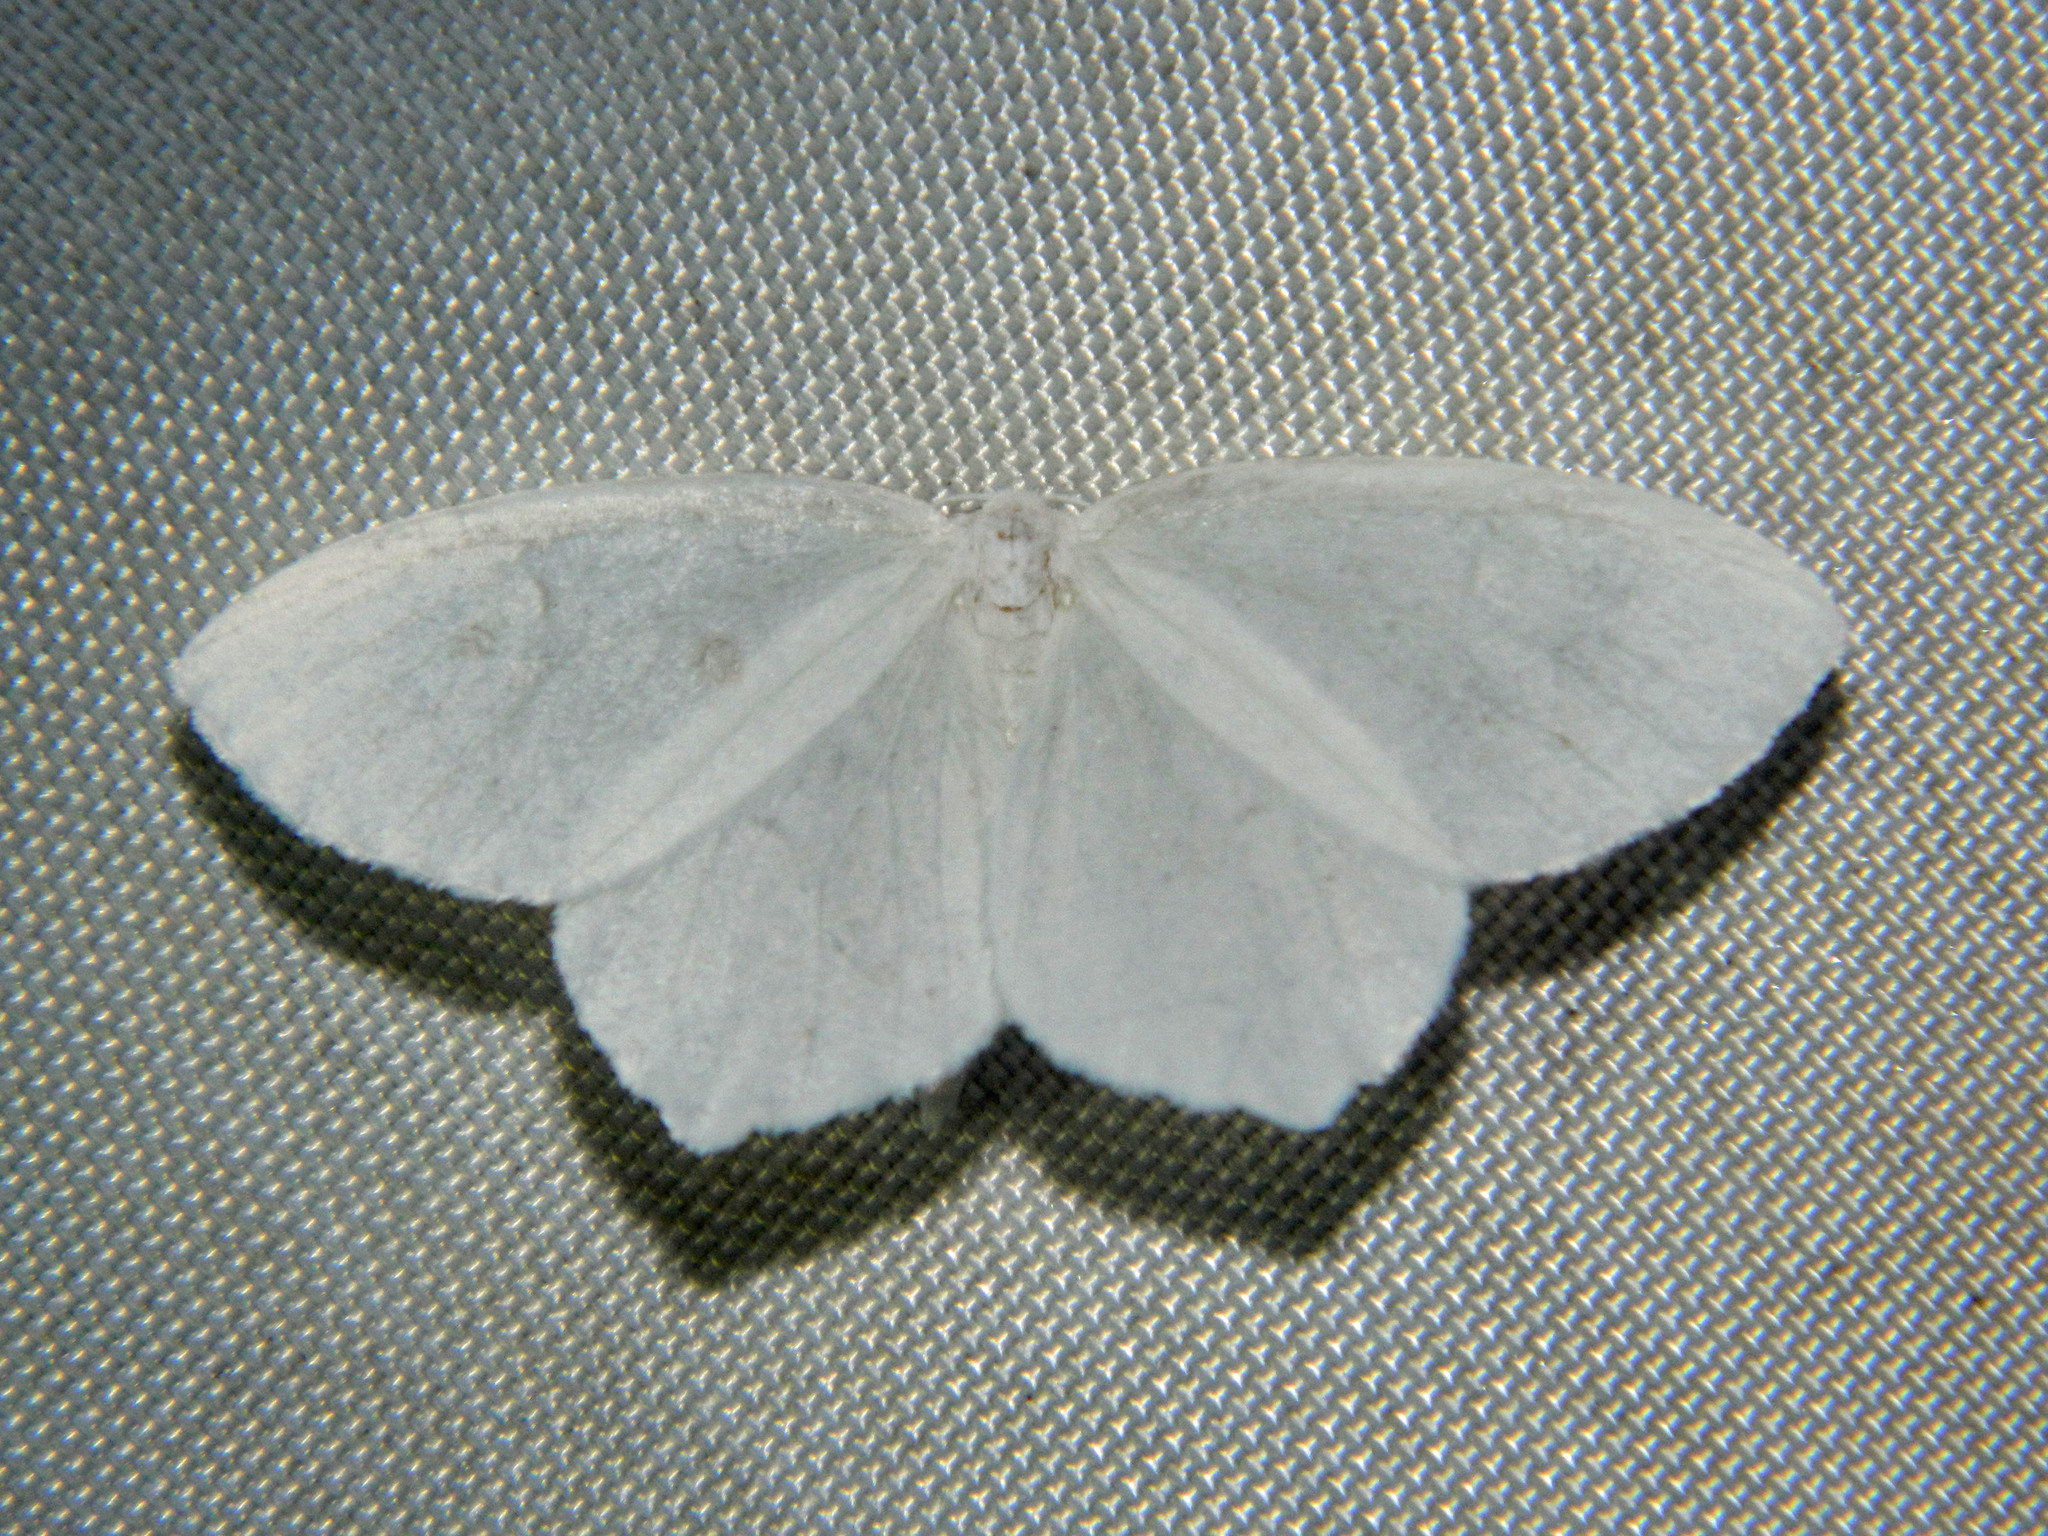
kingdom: Animalia
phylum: Arthropoda
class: Insecta
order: Lepidoptera
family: Geometridae
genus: Eugonobapta
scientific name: Eugonobapta nivosaria
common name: Snowy geometer
